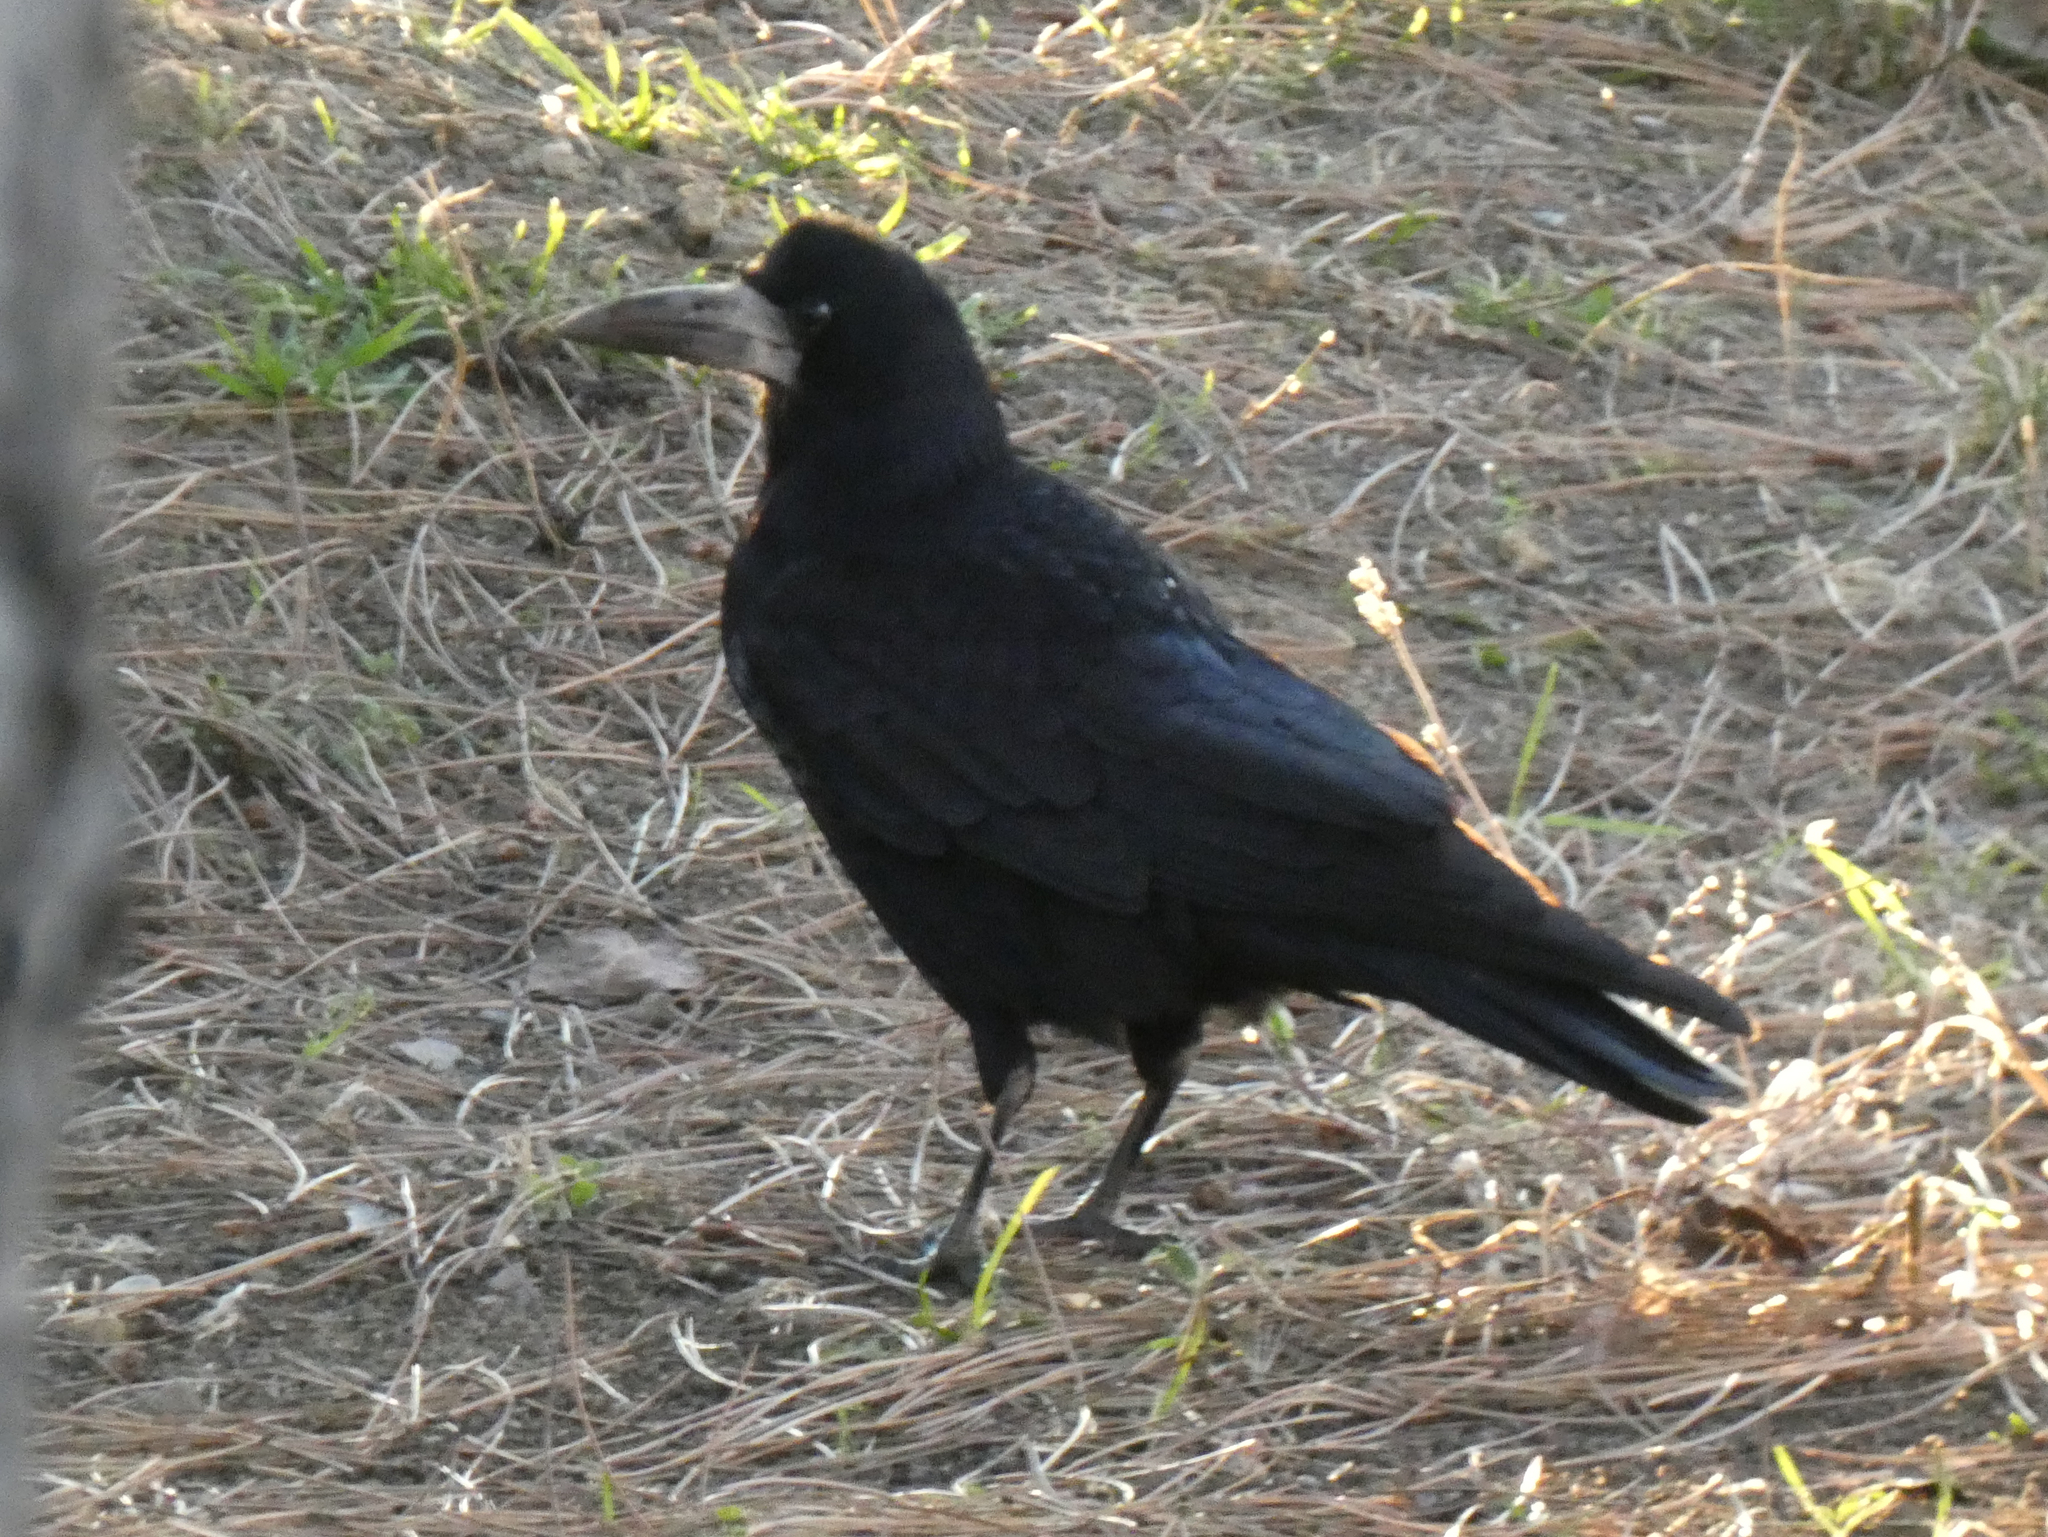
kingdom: Animalia
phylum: Chordata
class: Aves
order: Passeriformes
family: Corvidae
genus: Corvus
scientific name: Corvus frugilegus
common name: Rook
